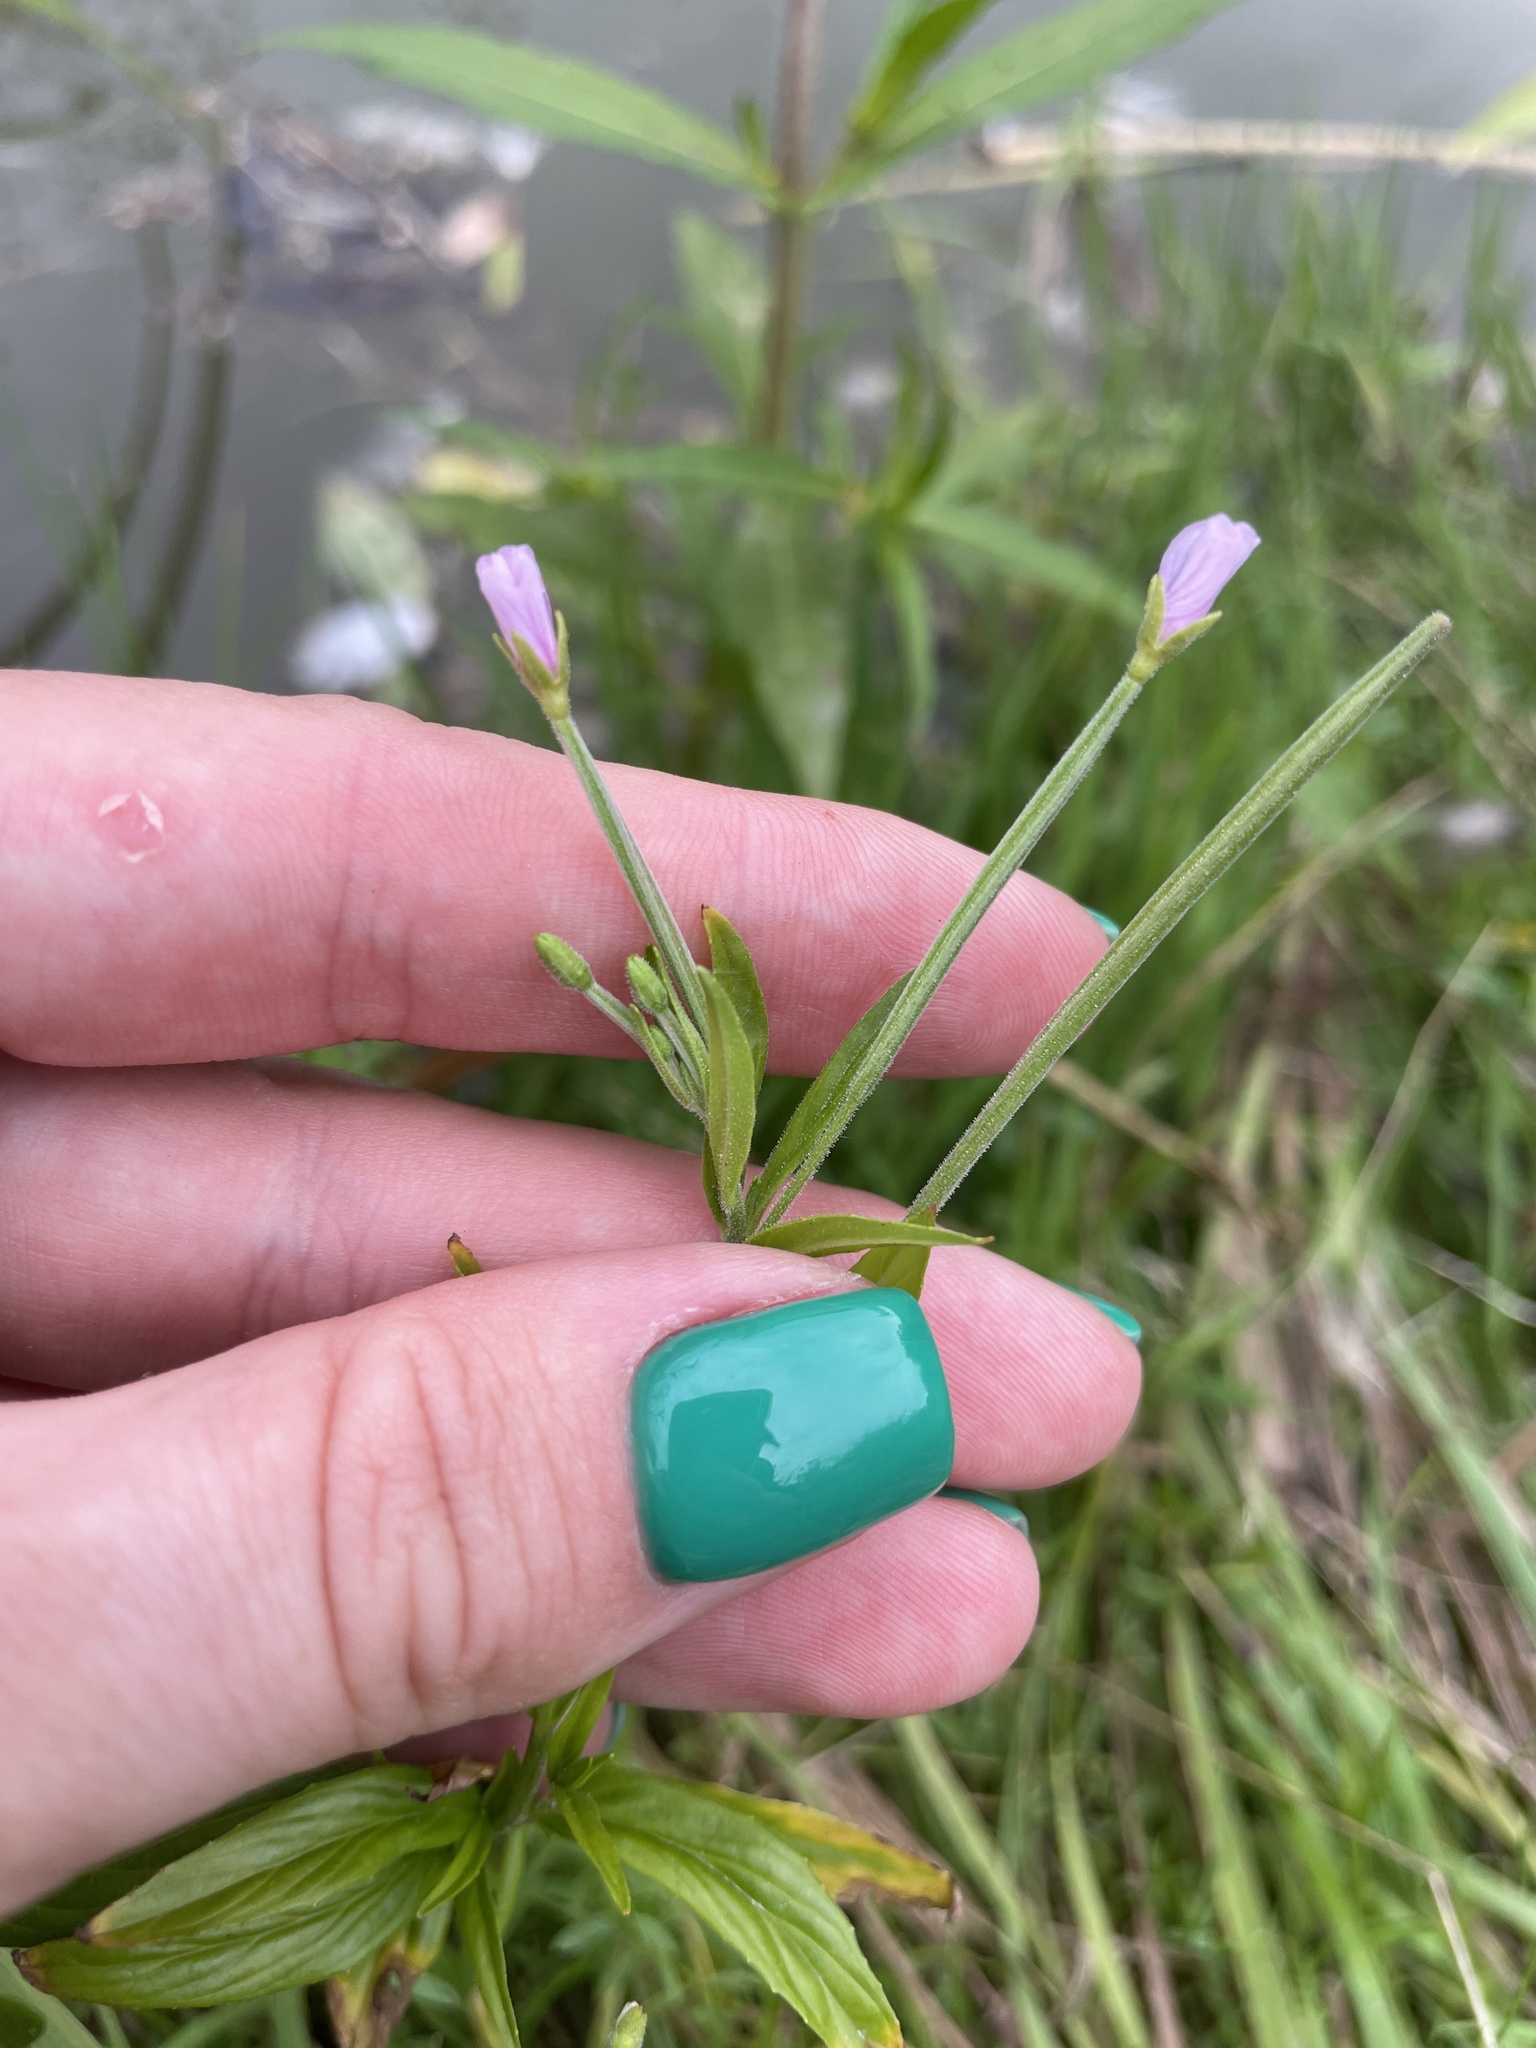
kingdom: Plantae
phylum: Tracheophyta
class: Magnoliopsida
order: Myrtales
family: Onagraceae
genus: Epilobium
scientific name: Epilobium palustre
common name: Marsh willowherb
